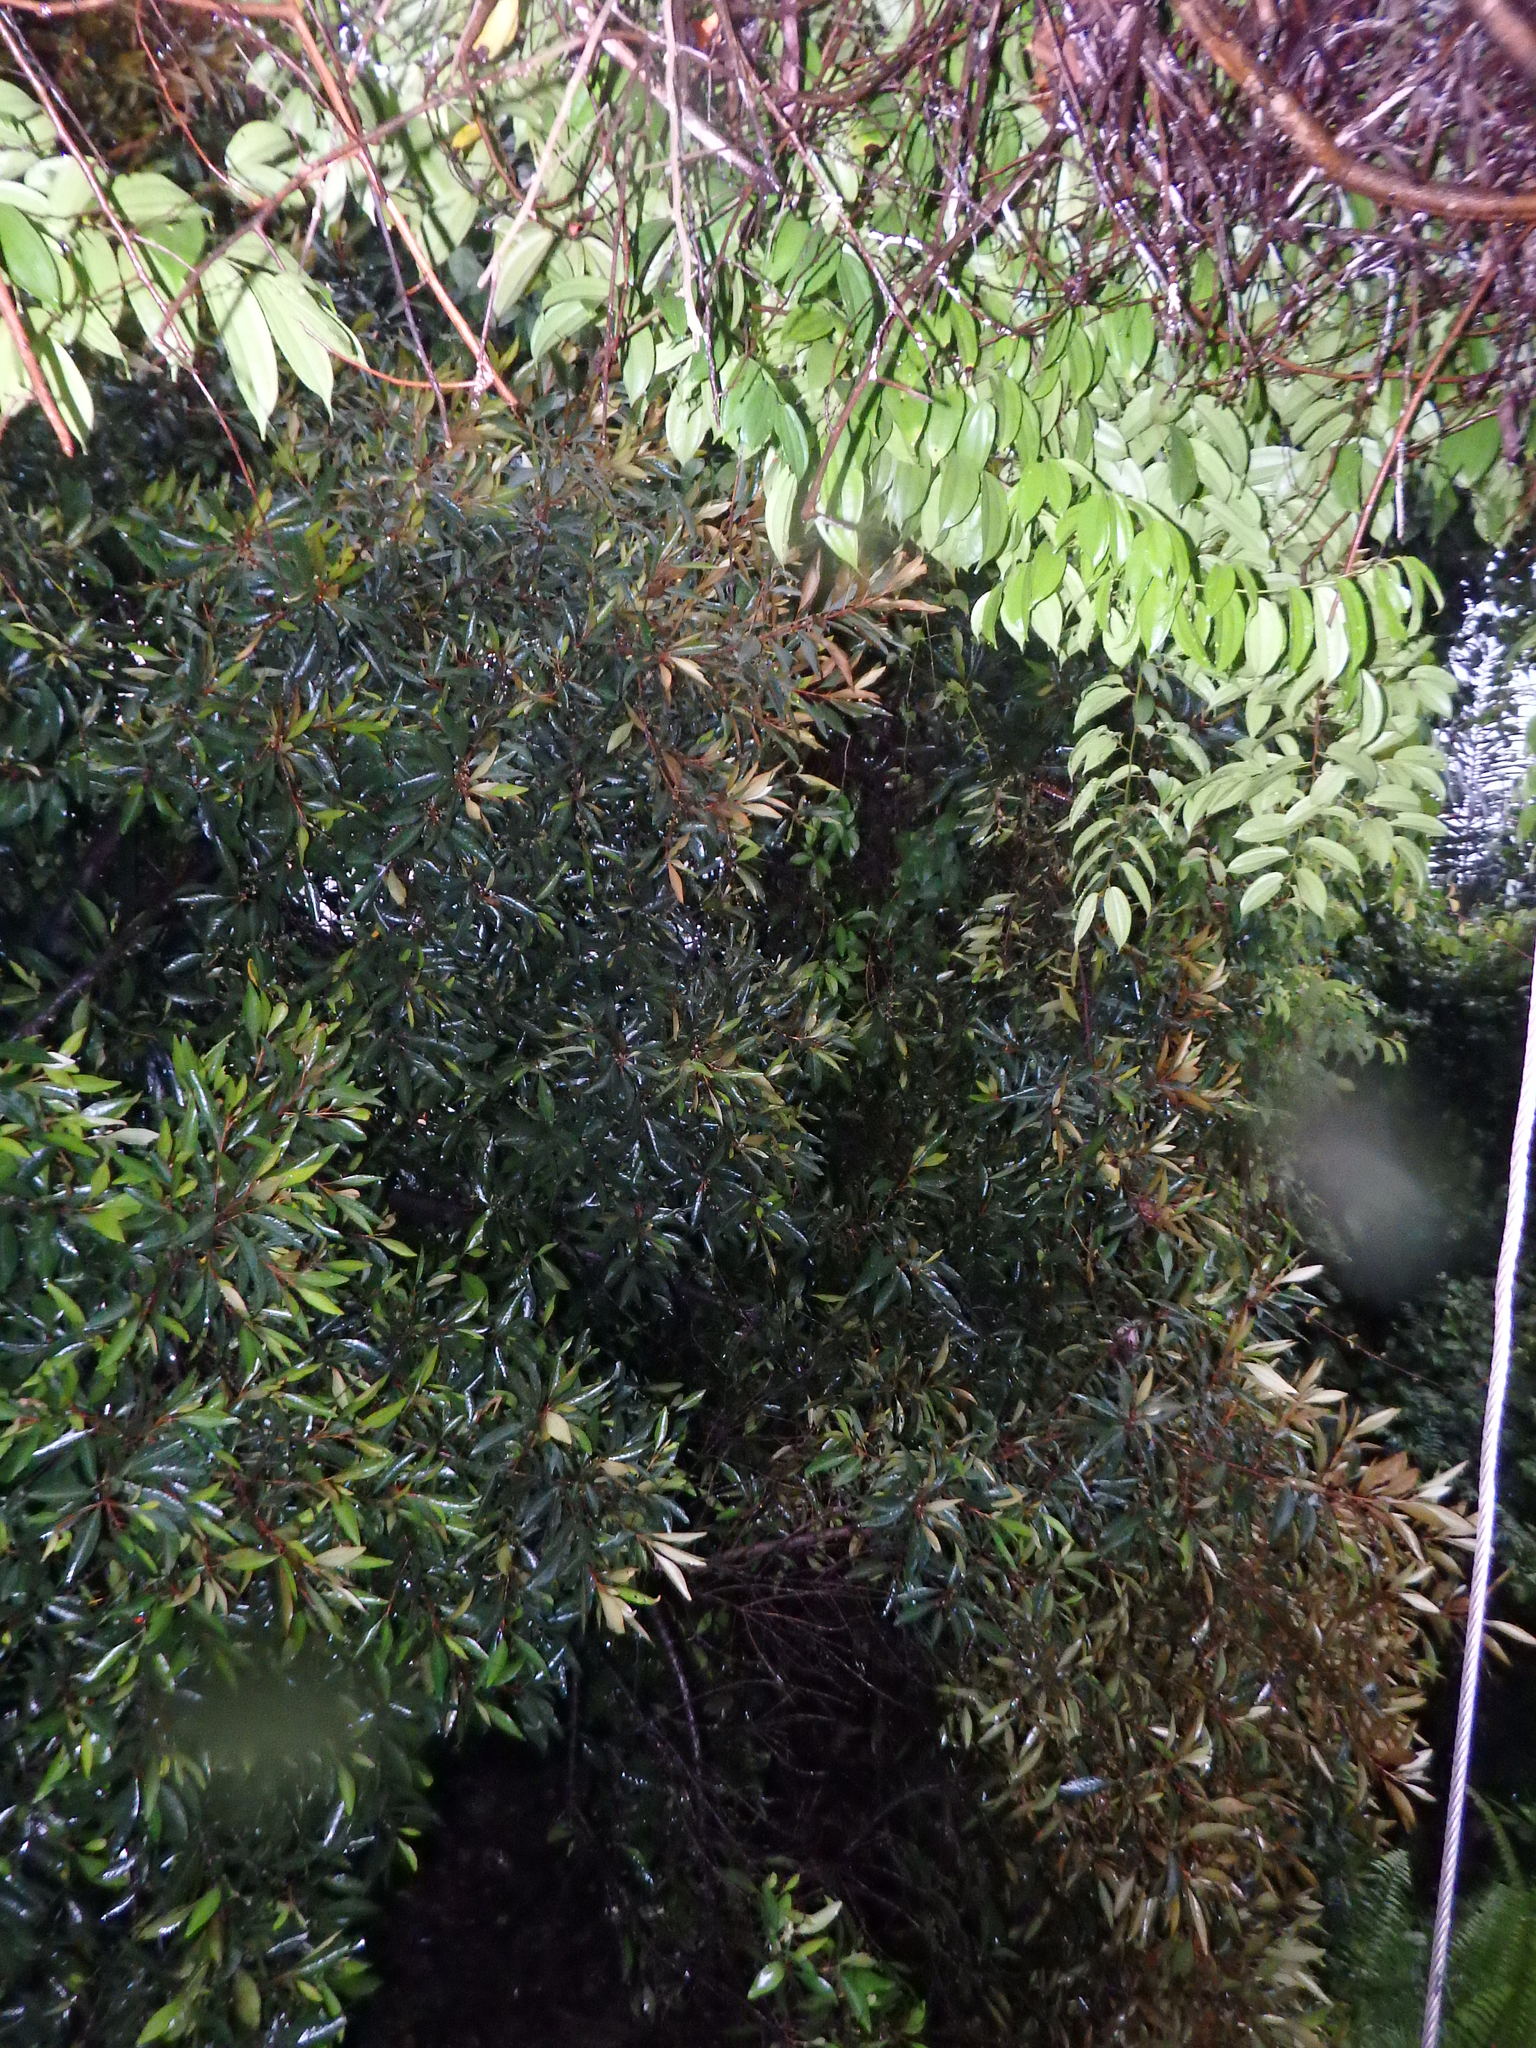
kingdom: Plantae
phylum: Tracheophyta
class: Magnoliopsida
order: Ericales
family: Sapotaceae
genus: Planchonella
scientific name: Planchonella obovata
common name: Black-ash
